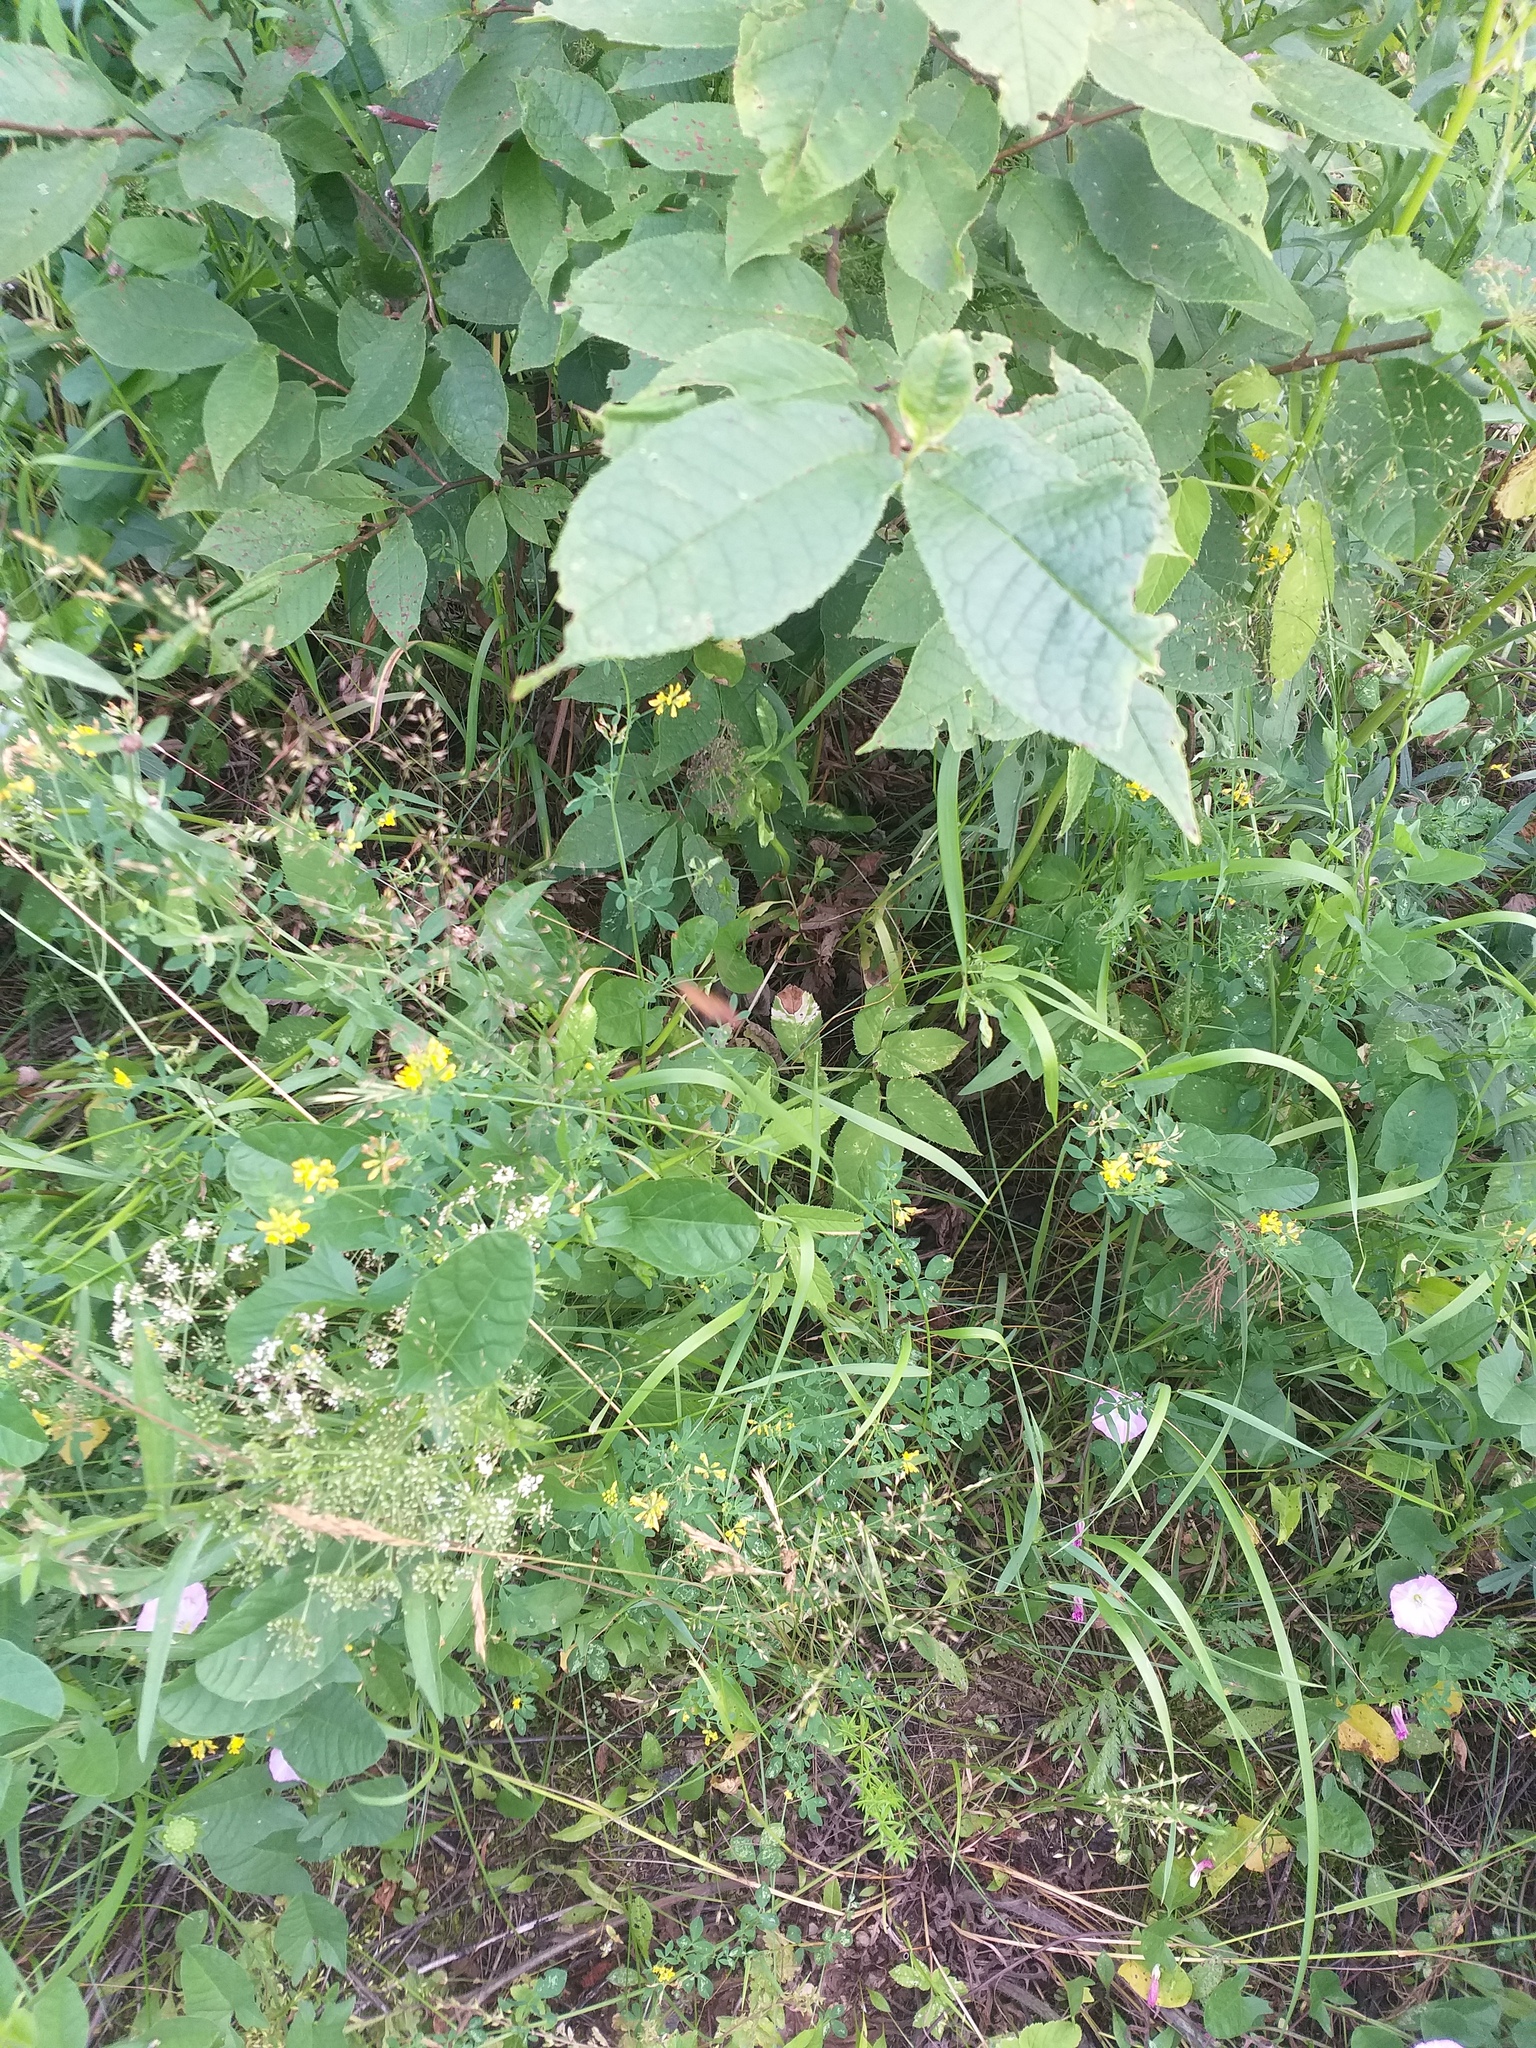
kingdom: Plantae
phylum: Tracheophyta
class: Magnoliopsida
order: Apiales
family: Apiaceae
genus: Aegopodium
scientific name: Aegopodium podagraria
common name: Ground-elder
